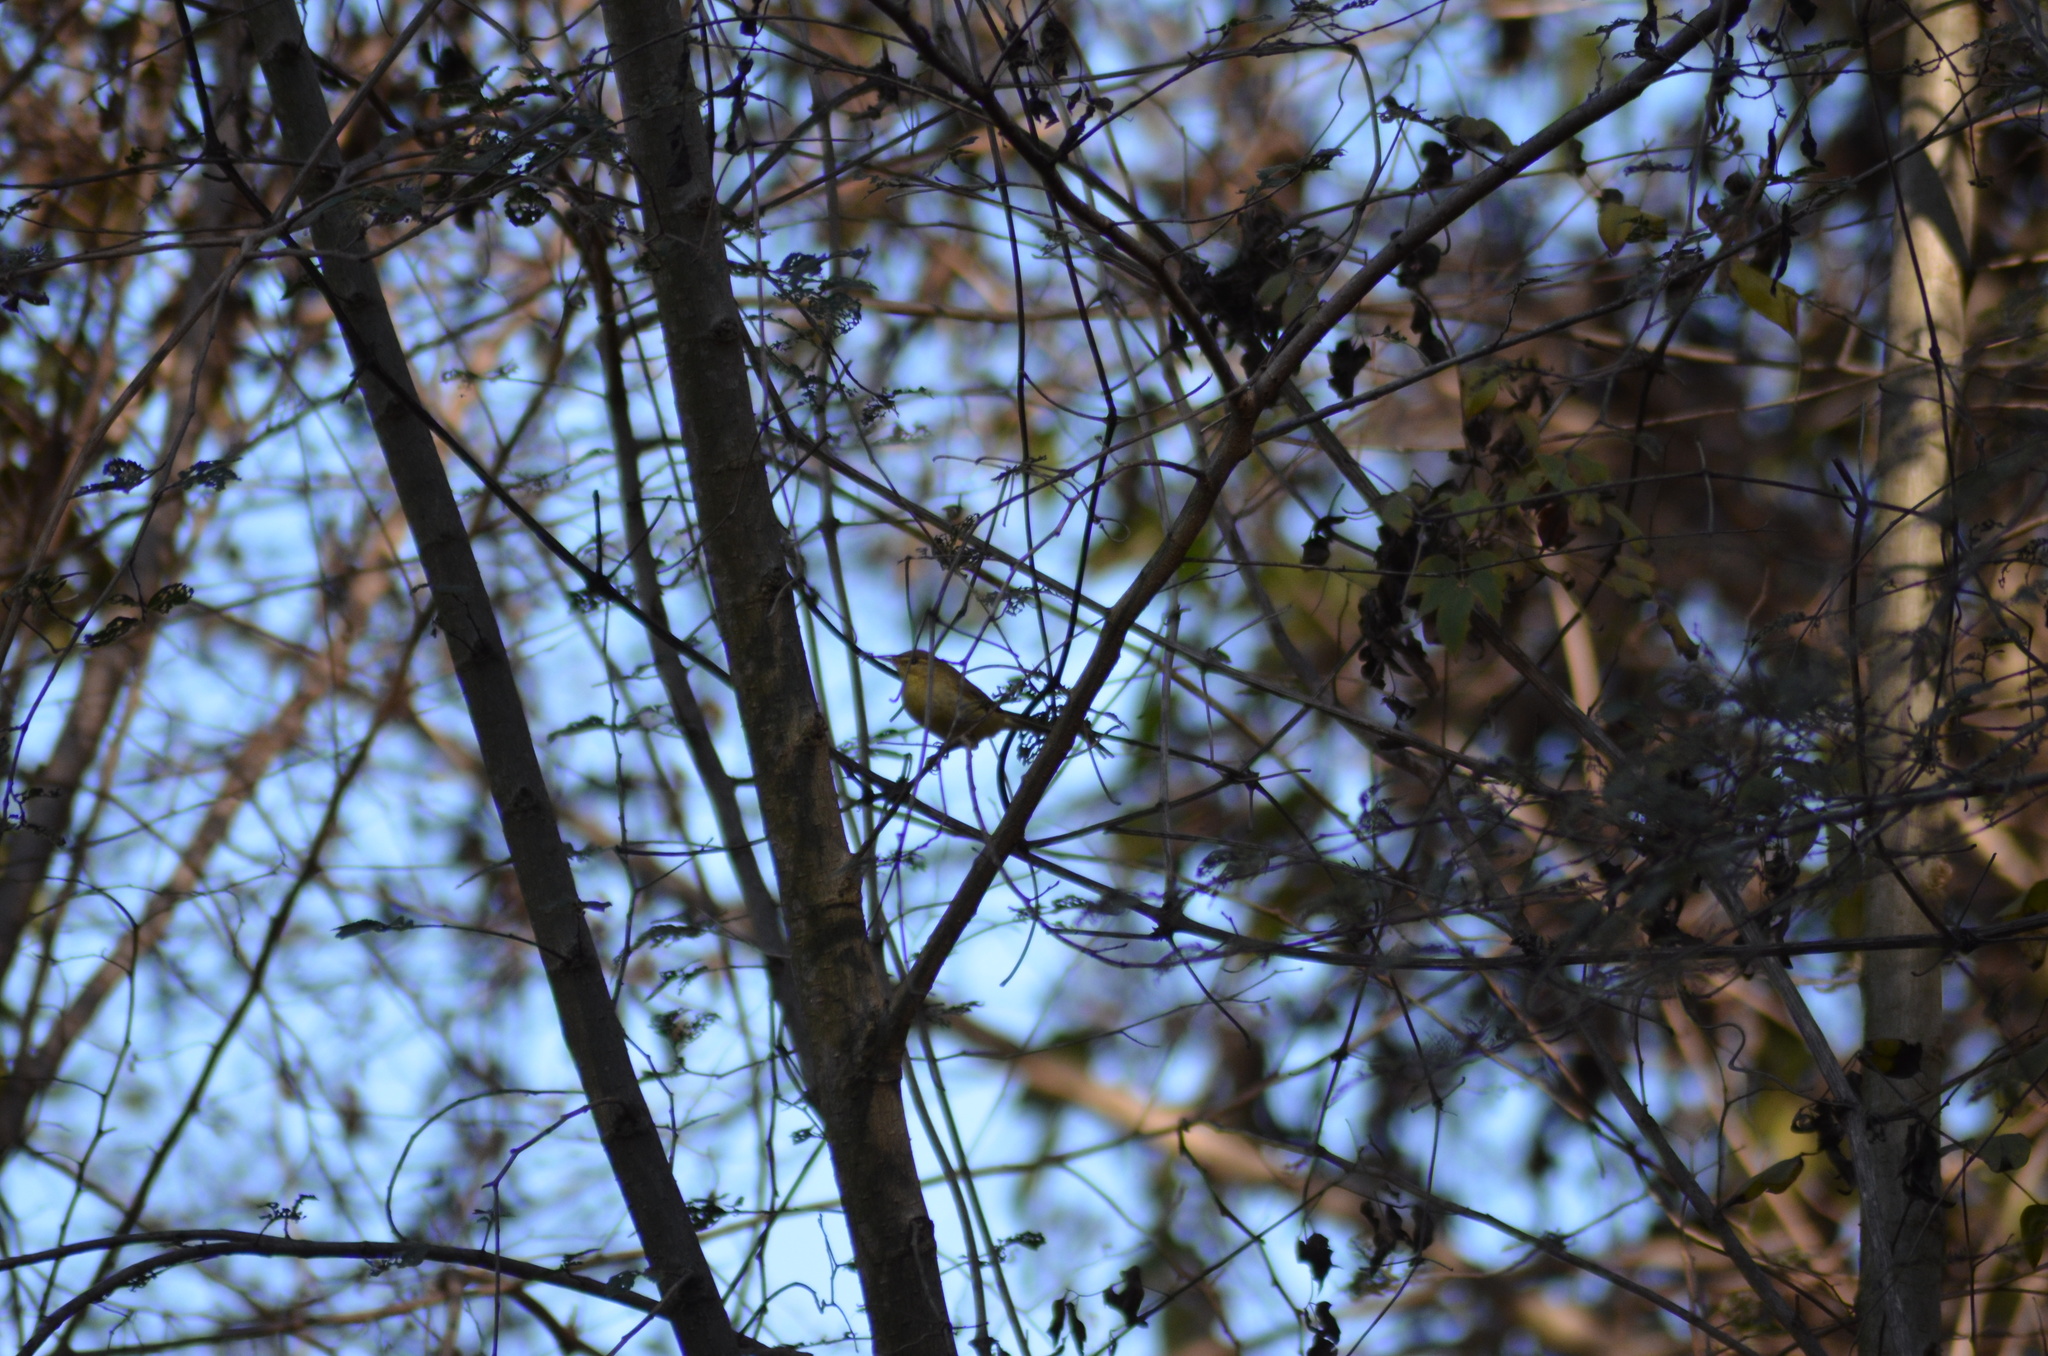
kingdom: Animalia
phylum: Chordata
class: Aves
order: Passeriformes
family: Phylloscopidae
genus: Phylloscopus
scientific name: Phylloscopus trochilus
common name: Willow warbler
